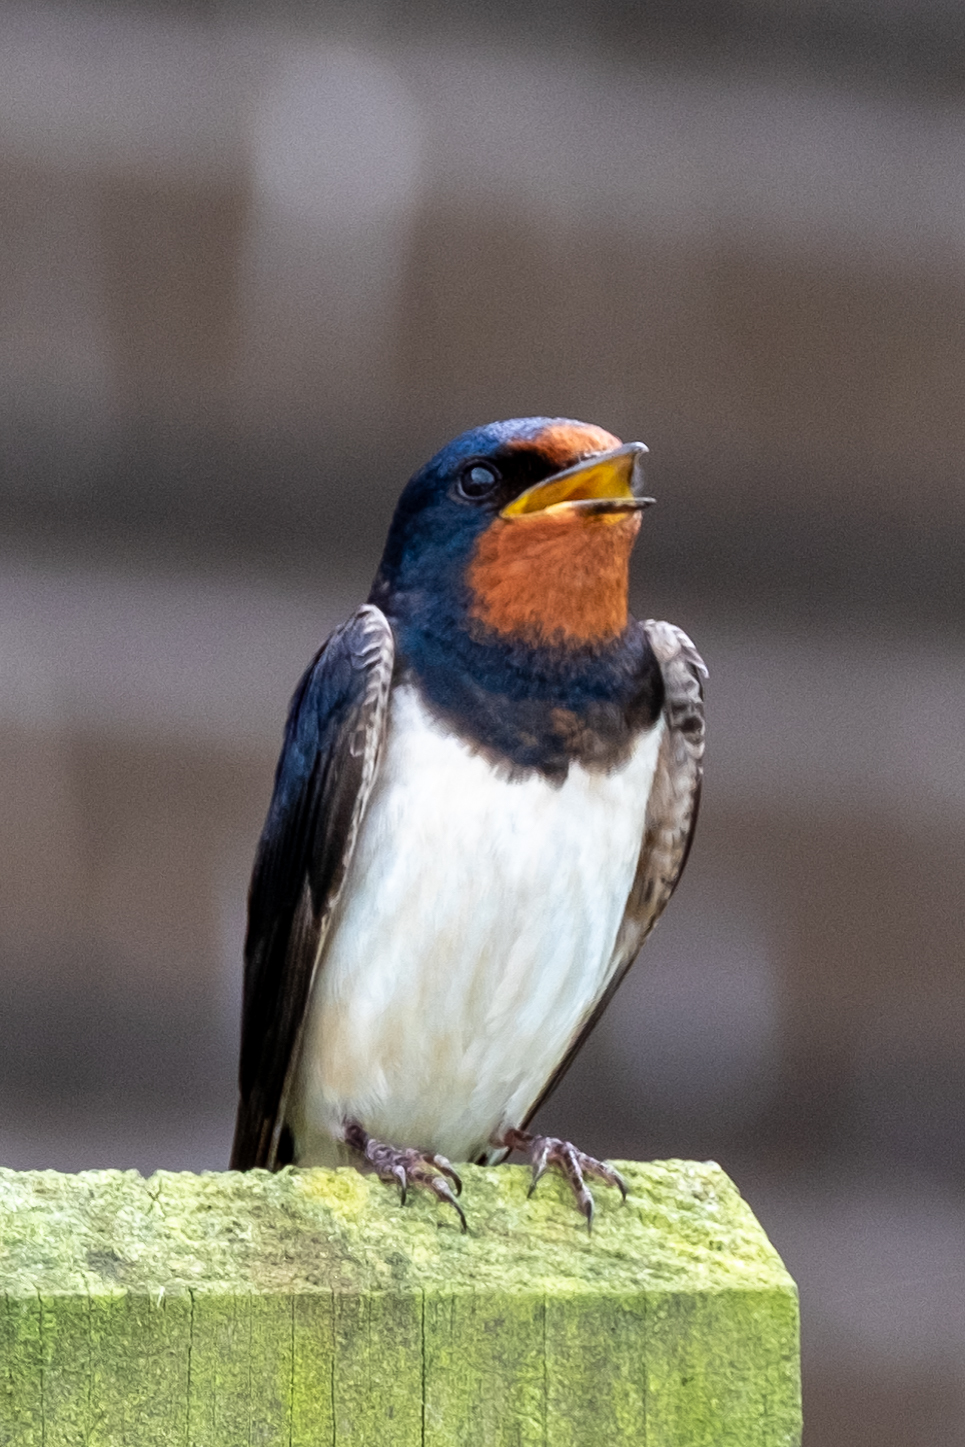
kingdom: Animalia
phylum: Chordata
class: Aves
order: Passeriformes
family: Hirundinidae
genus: Hirundo
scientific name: Hirundo rustica
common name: Barn swallow
